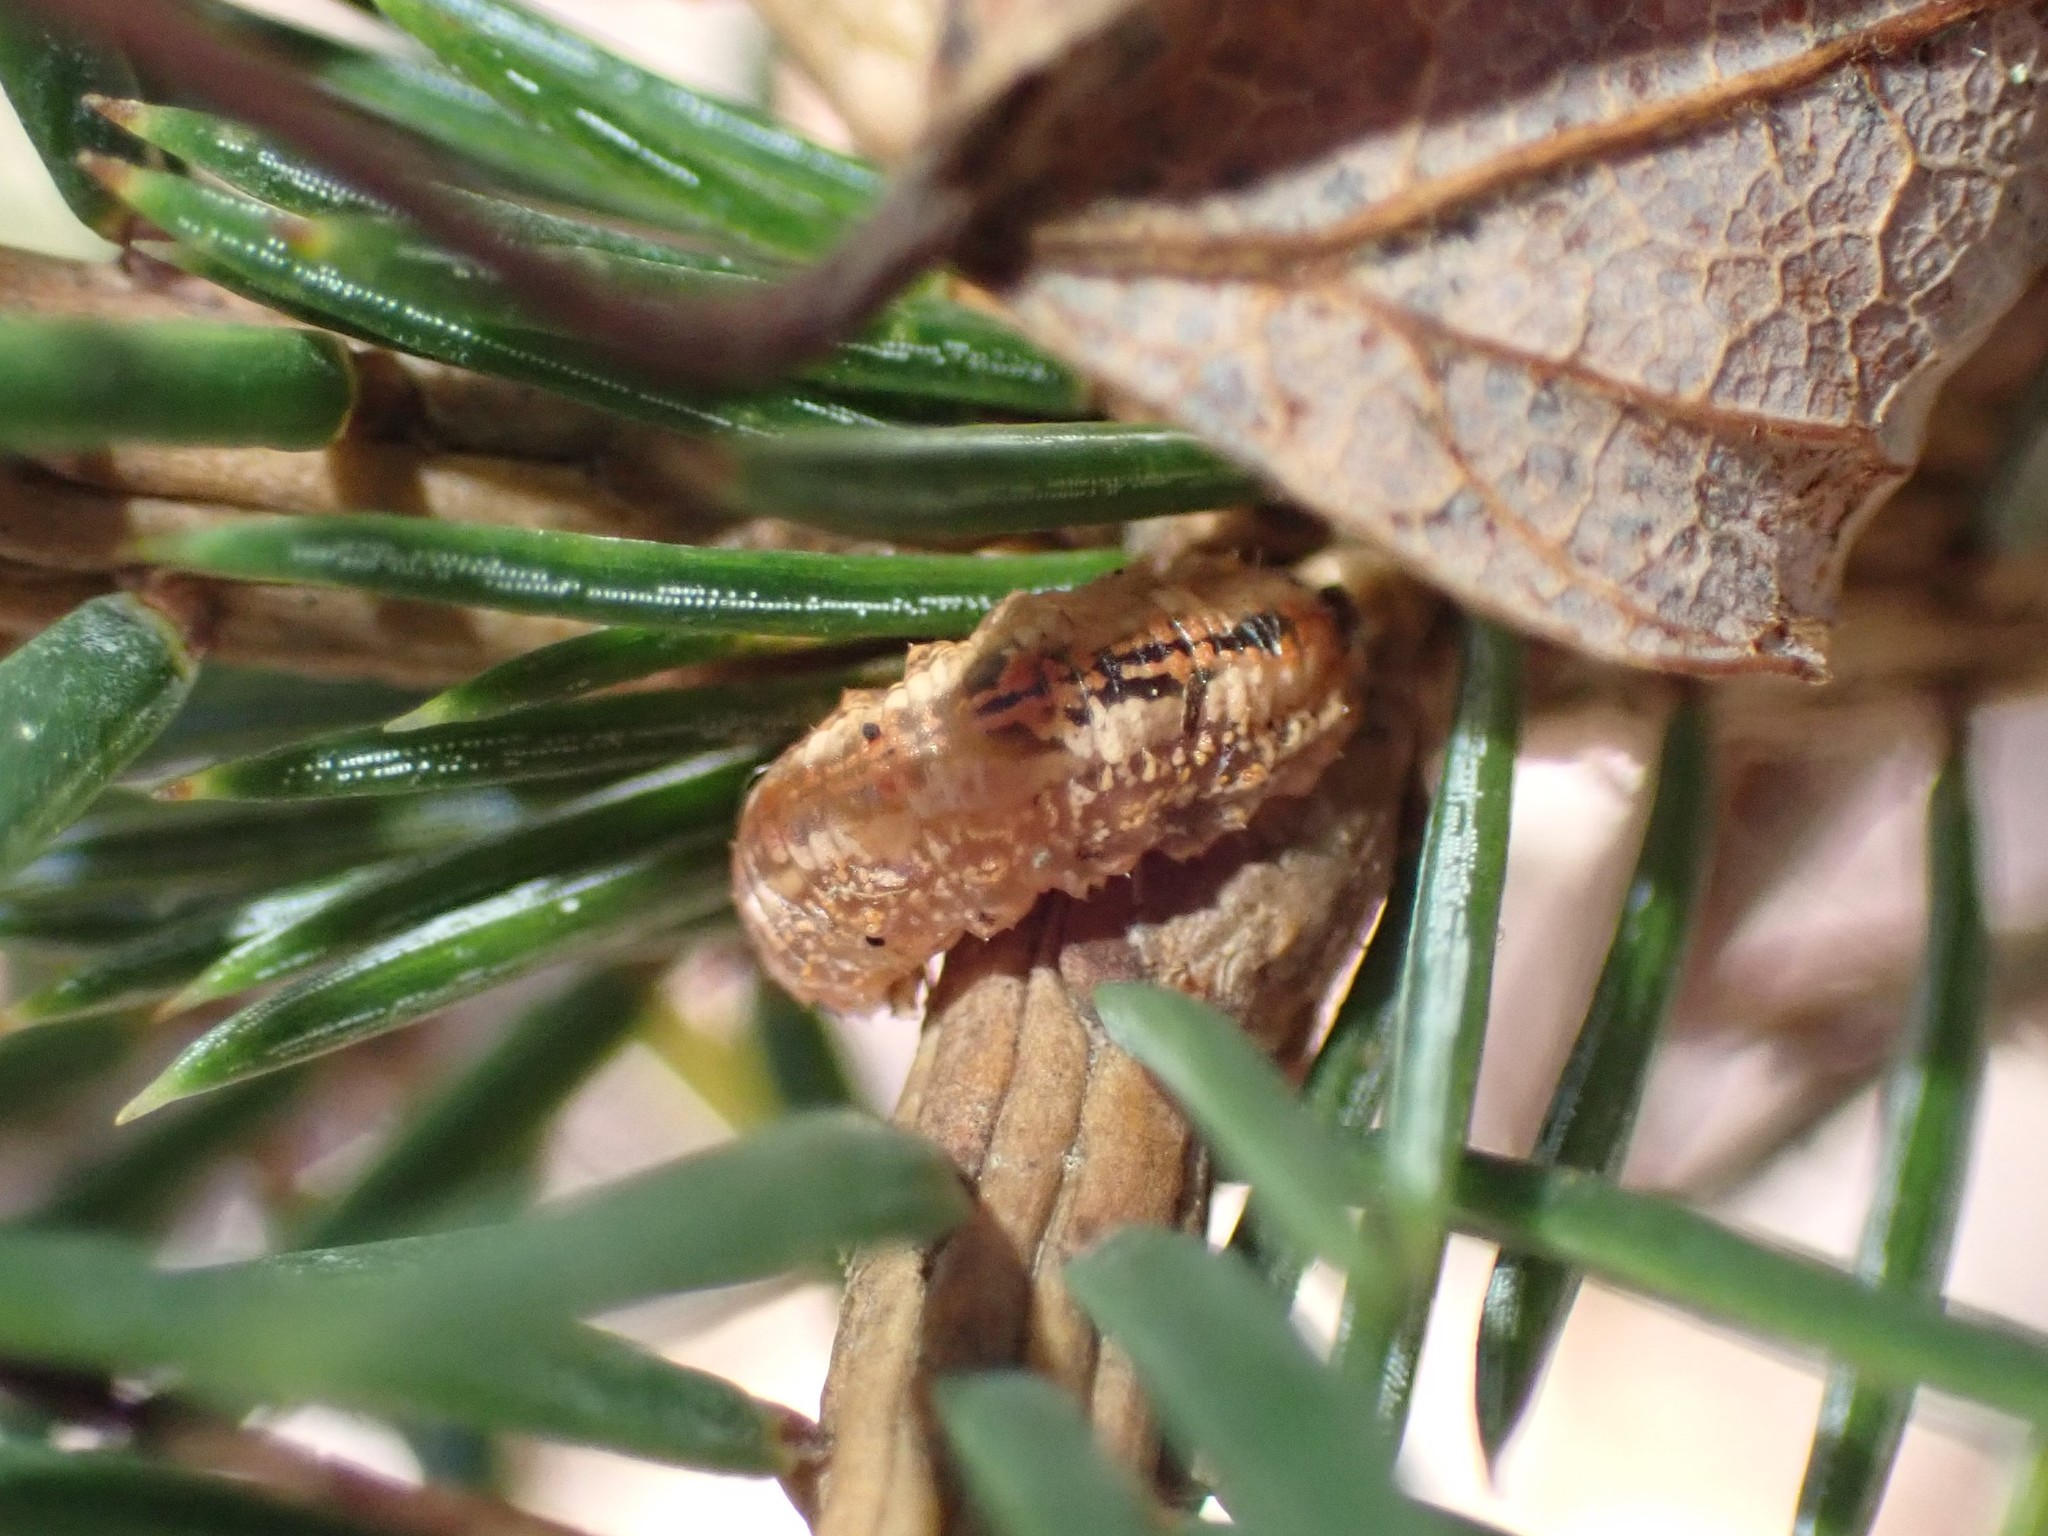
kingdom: Animalia
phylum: Arthropoda
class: Insecta
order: Diptera
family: Syrphidae
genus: Syrphus
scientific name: Syrphus
